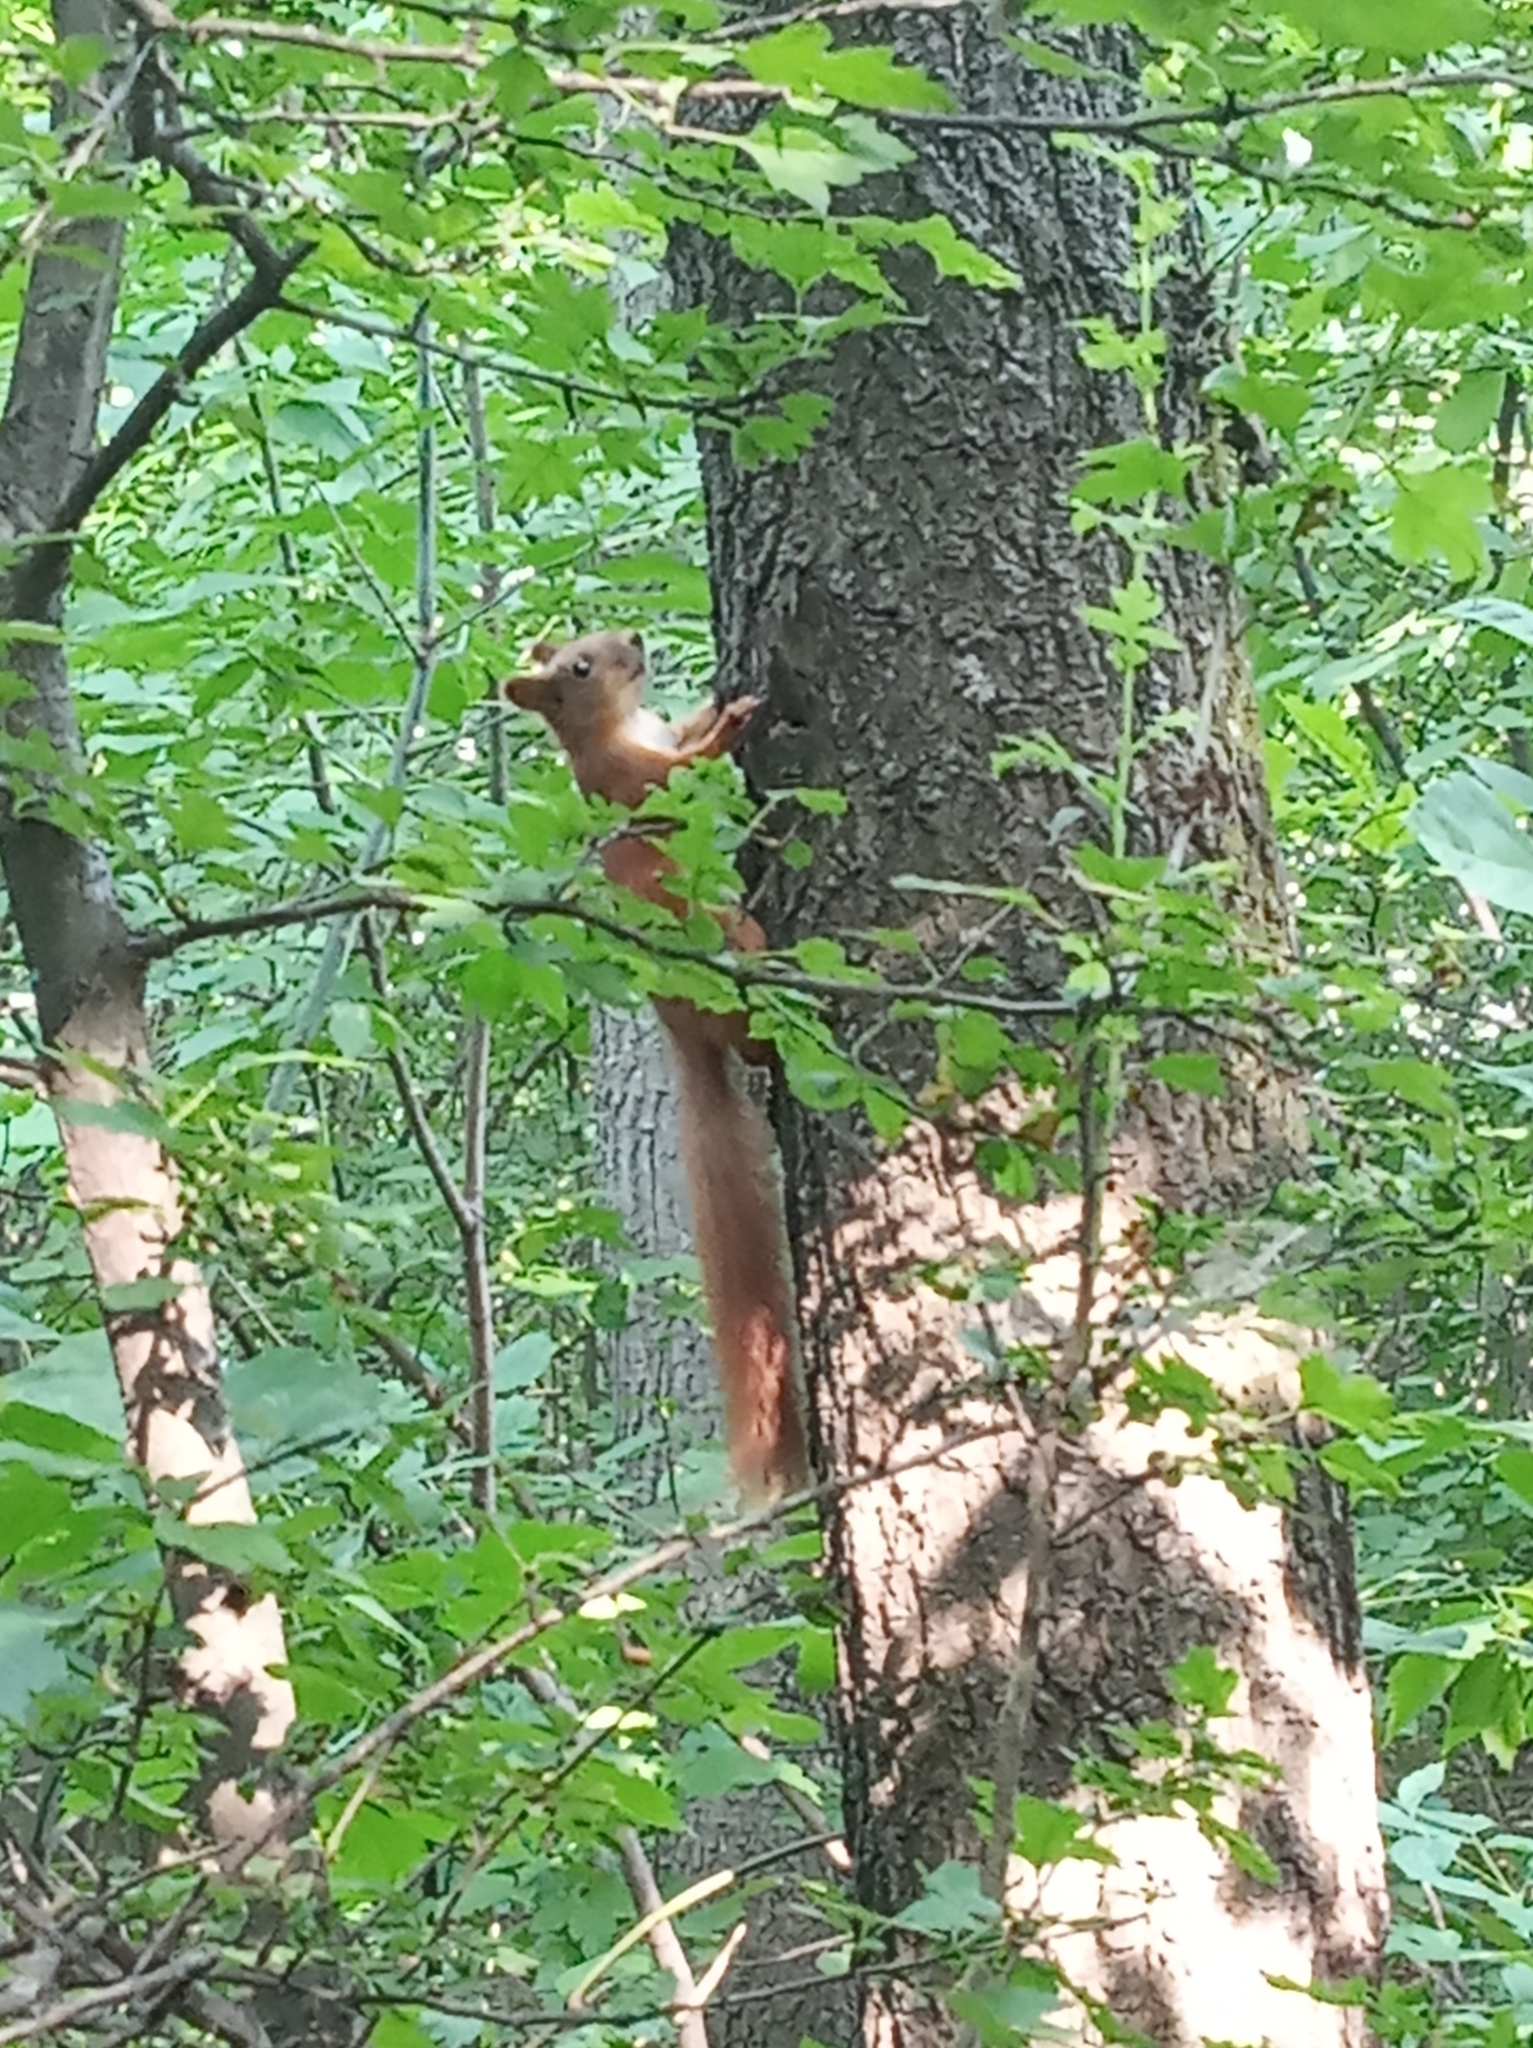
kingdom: Animalia
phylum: Chordata
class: Mammalia
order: Rodentia
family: Sciuridae
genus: Sciurus
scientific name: Sciurus vulgaris
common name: Eurasian red squirrel
